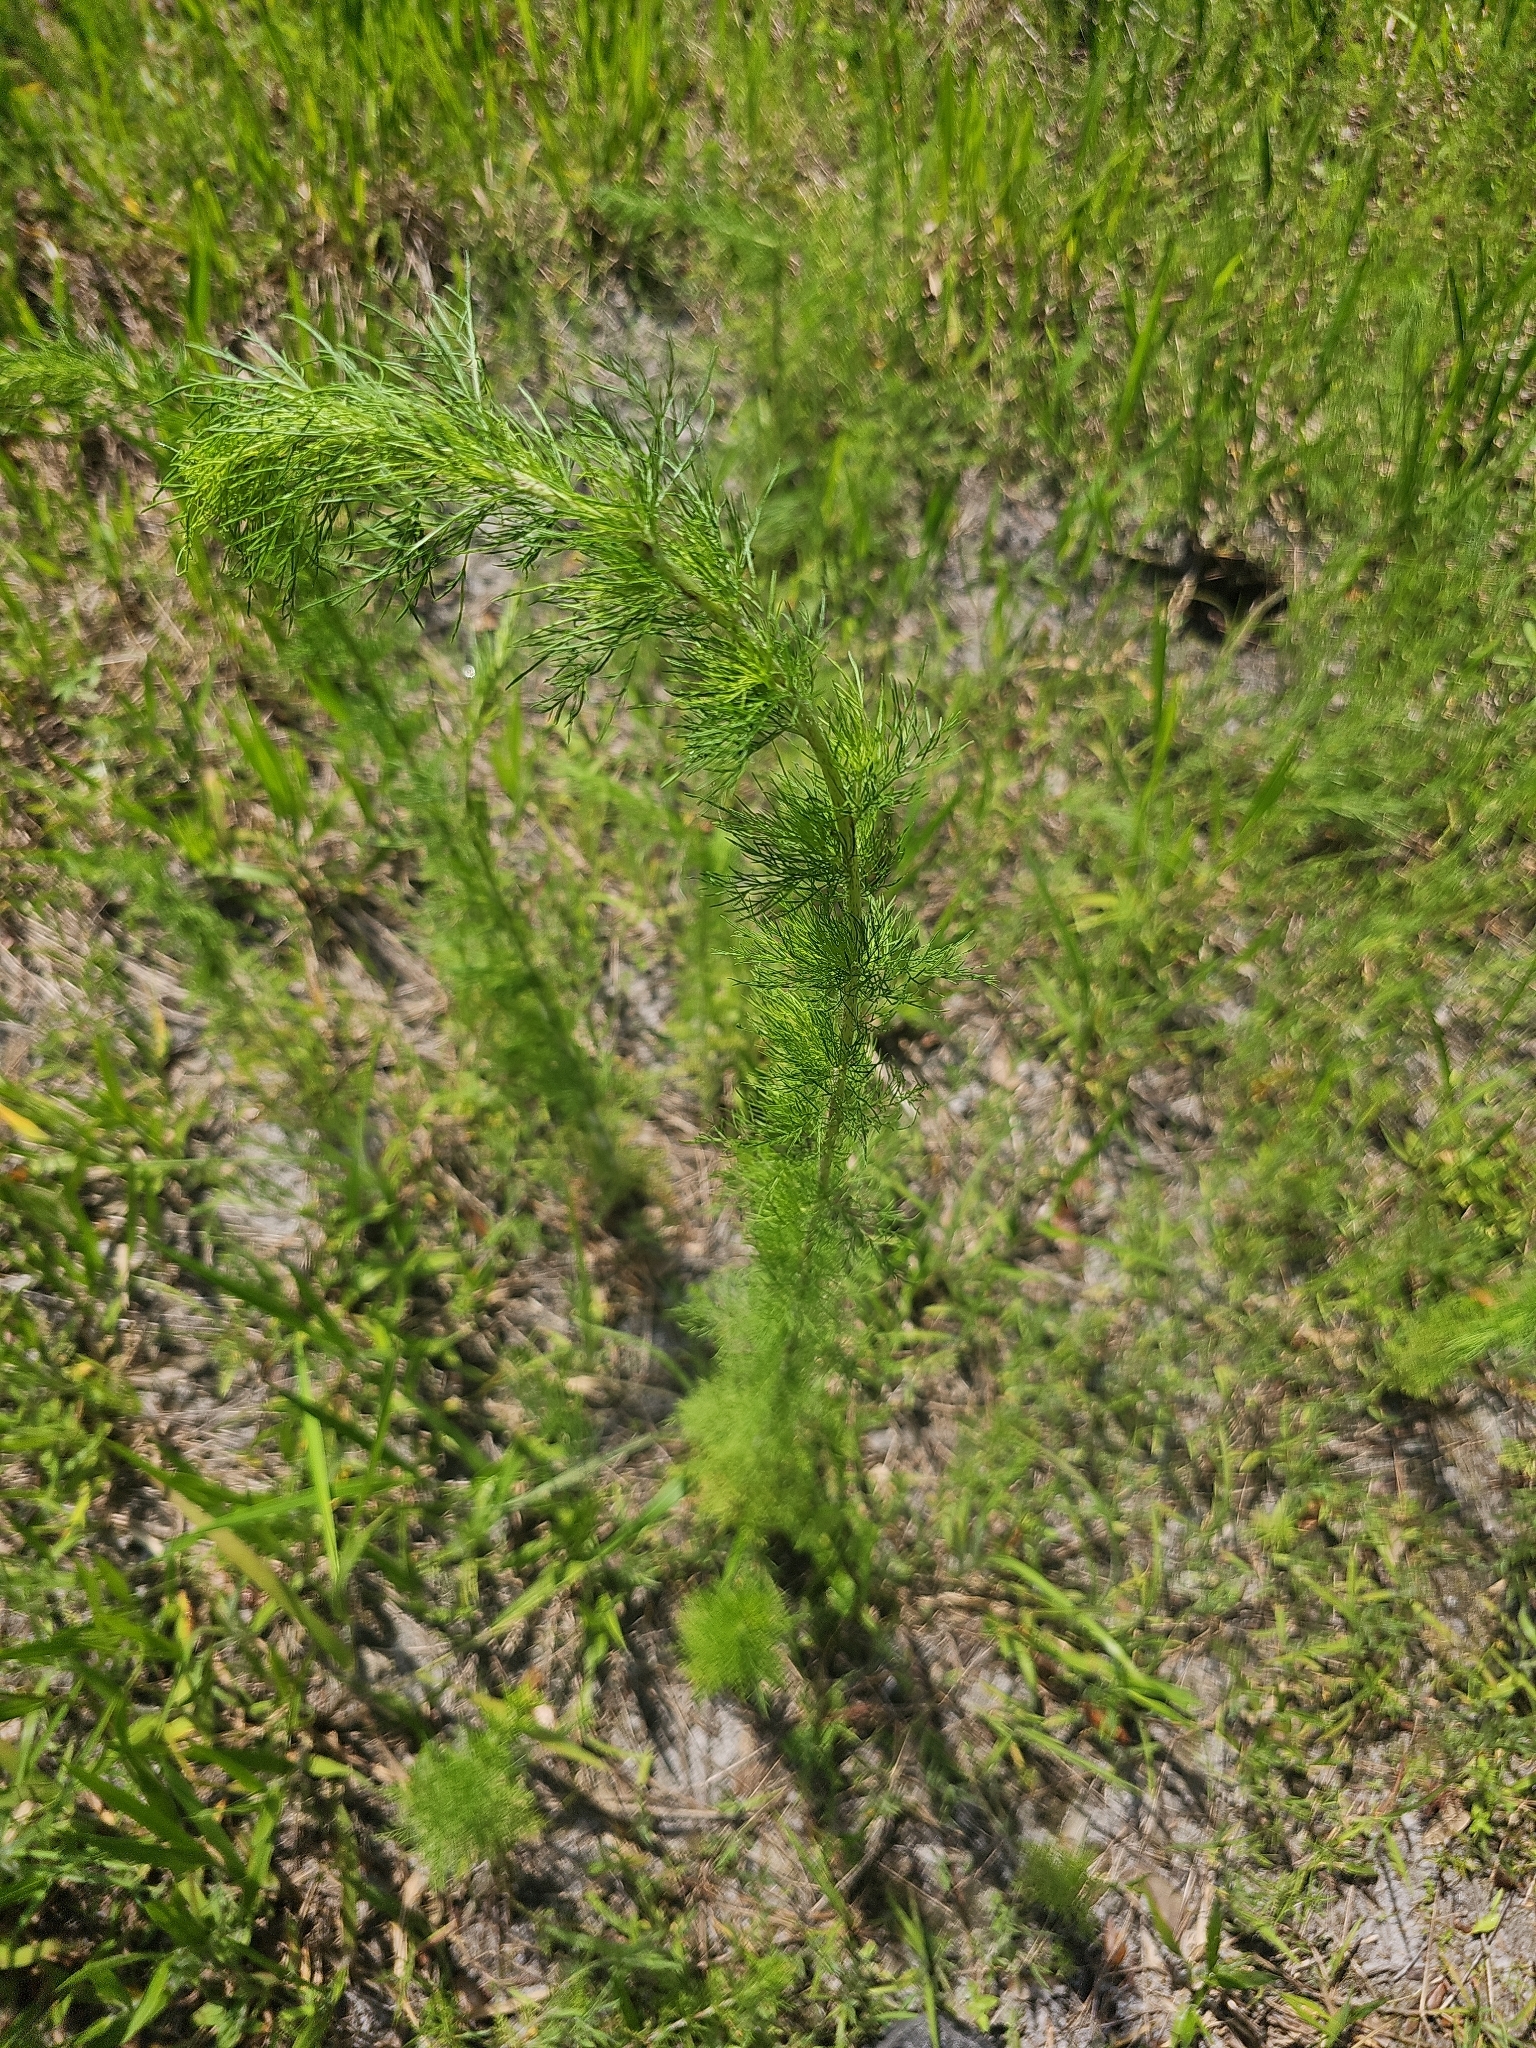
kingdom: Plantae
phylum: Tracheophyta
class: Magnoliopsida
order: Asterales
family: Asteraceae
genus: Eupatorium
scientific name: Eupatorium capillifolium
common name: Dog-fennel
